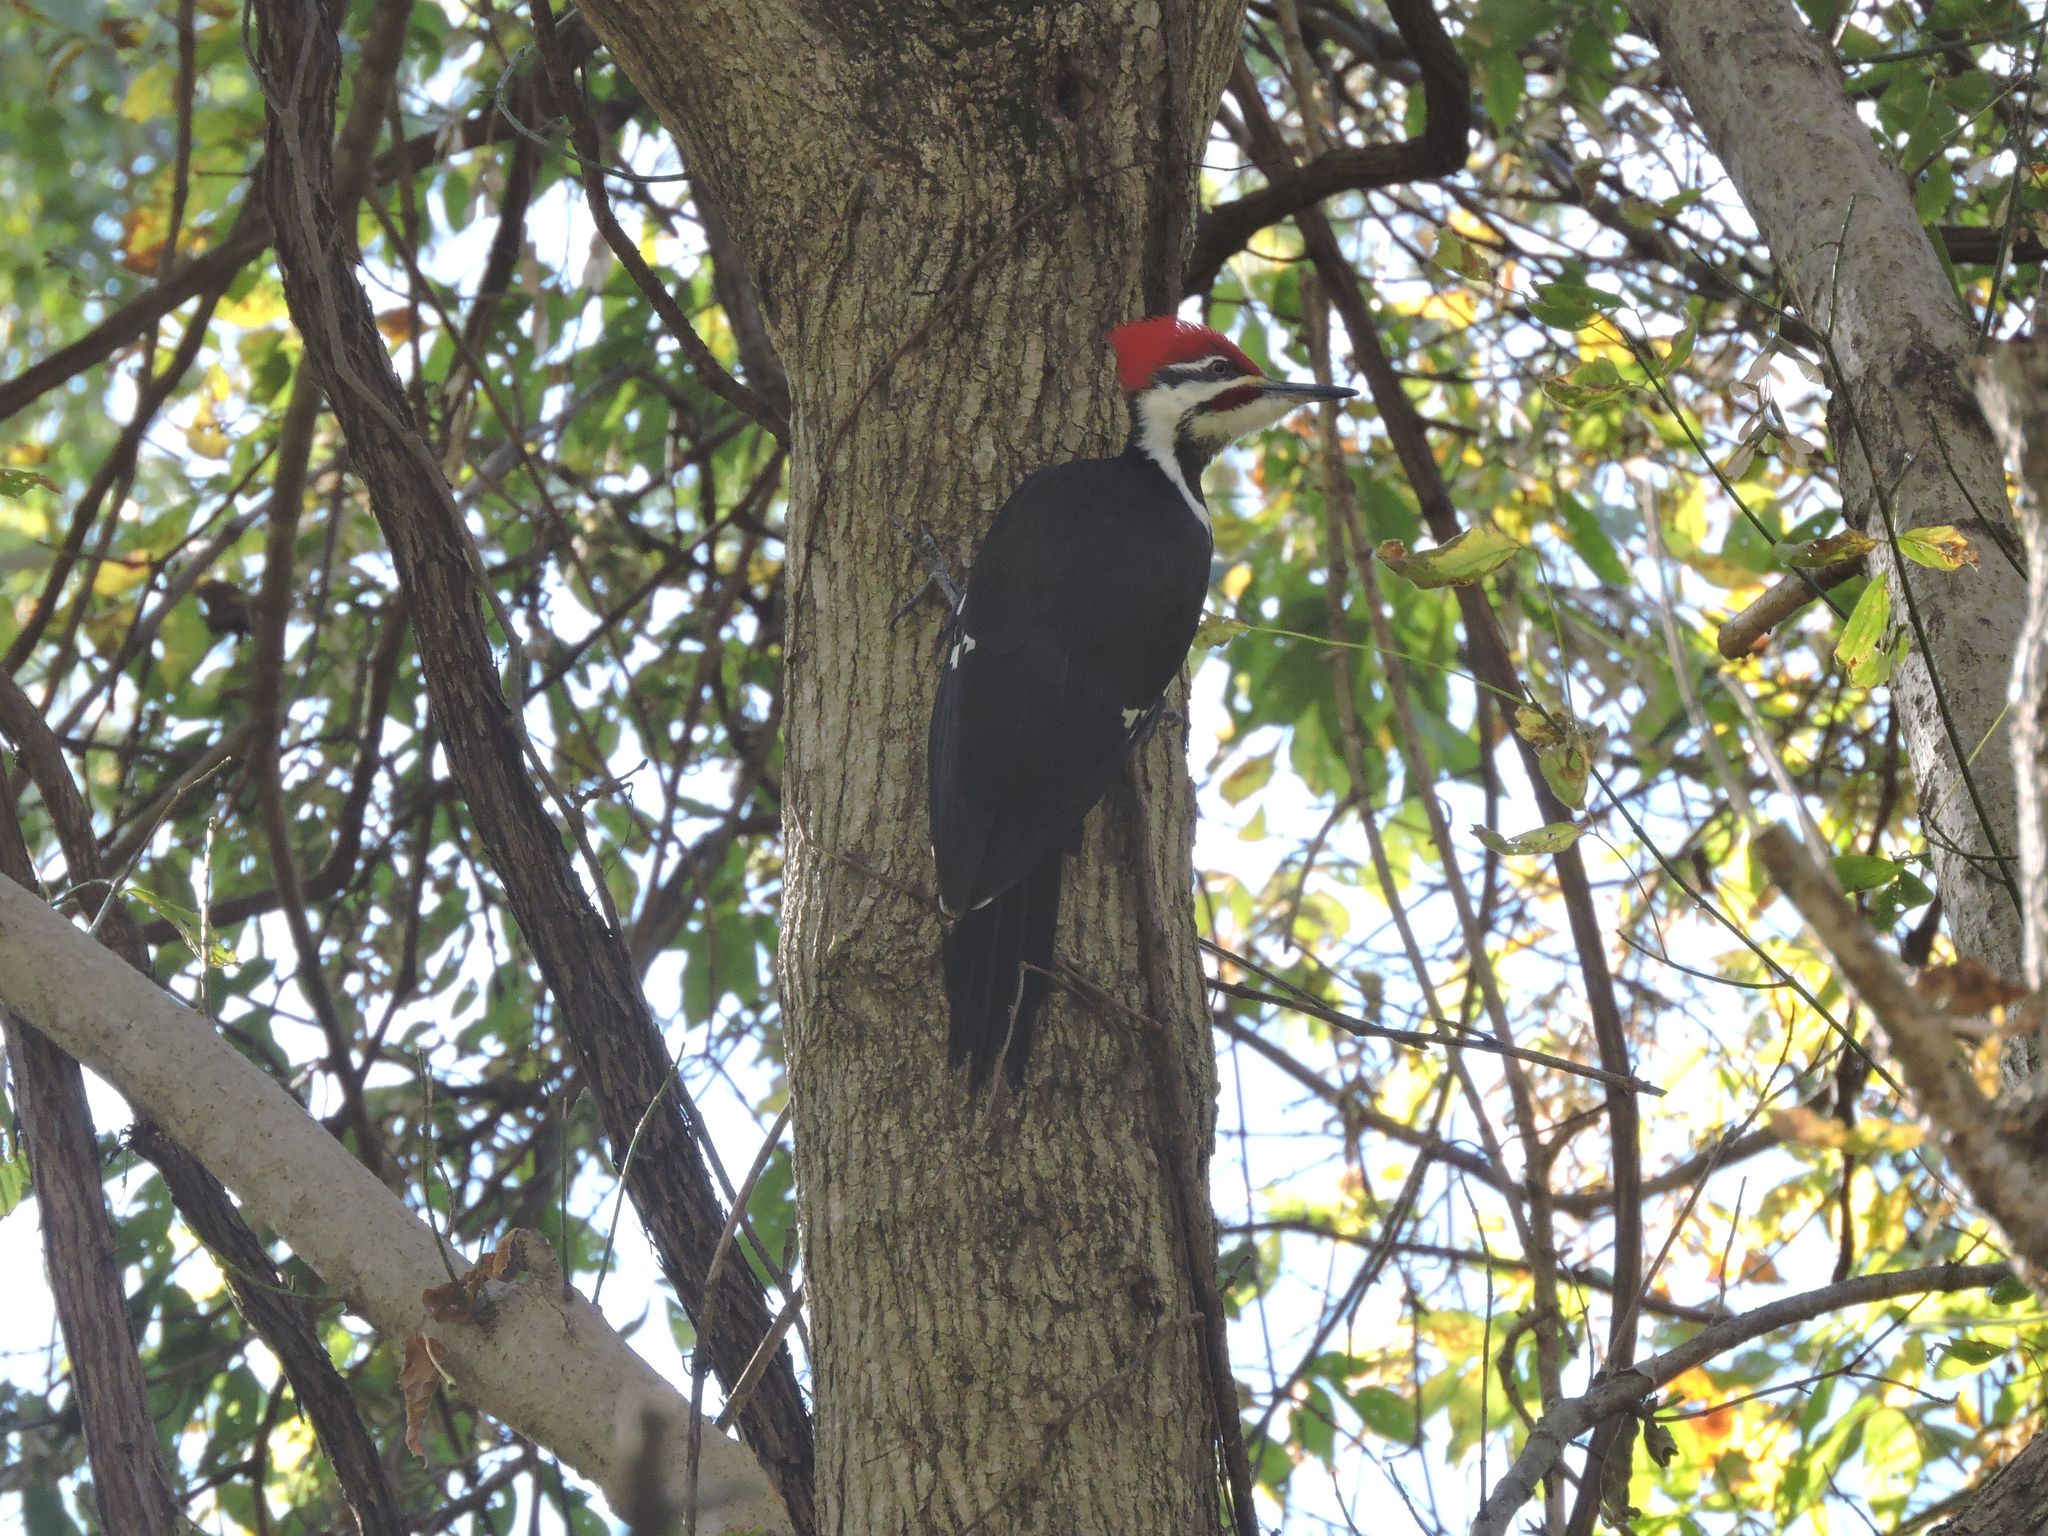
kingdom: Animalia
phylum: Chordata
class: Aves
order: Piciformes
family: Picidae
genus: Dryocopus
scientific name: Dryocopus pileatus
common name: Pileated woodpecker
